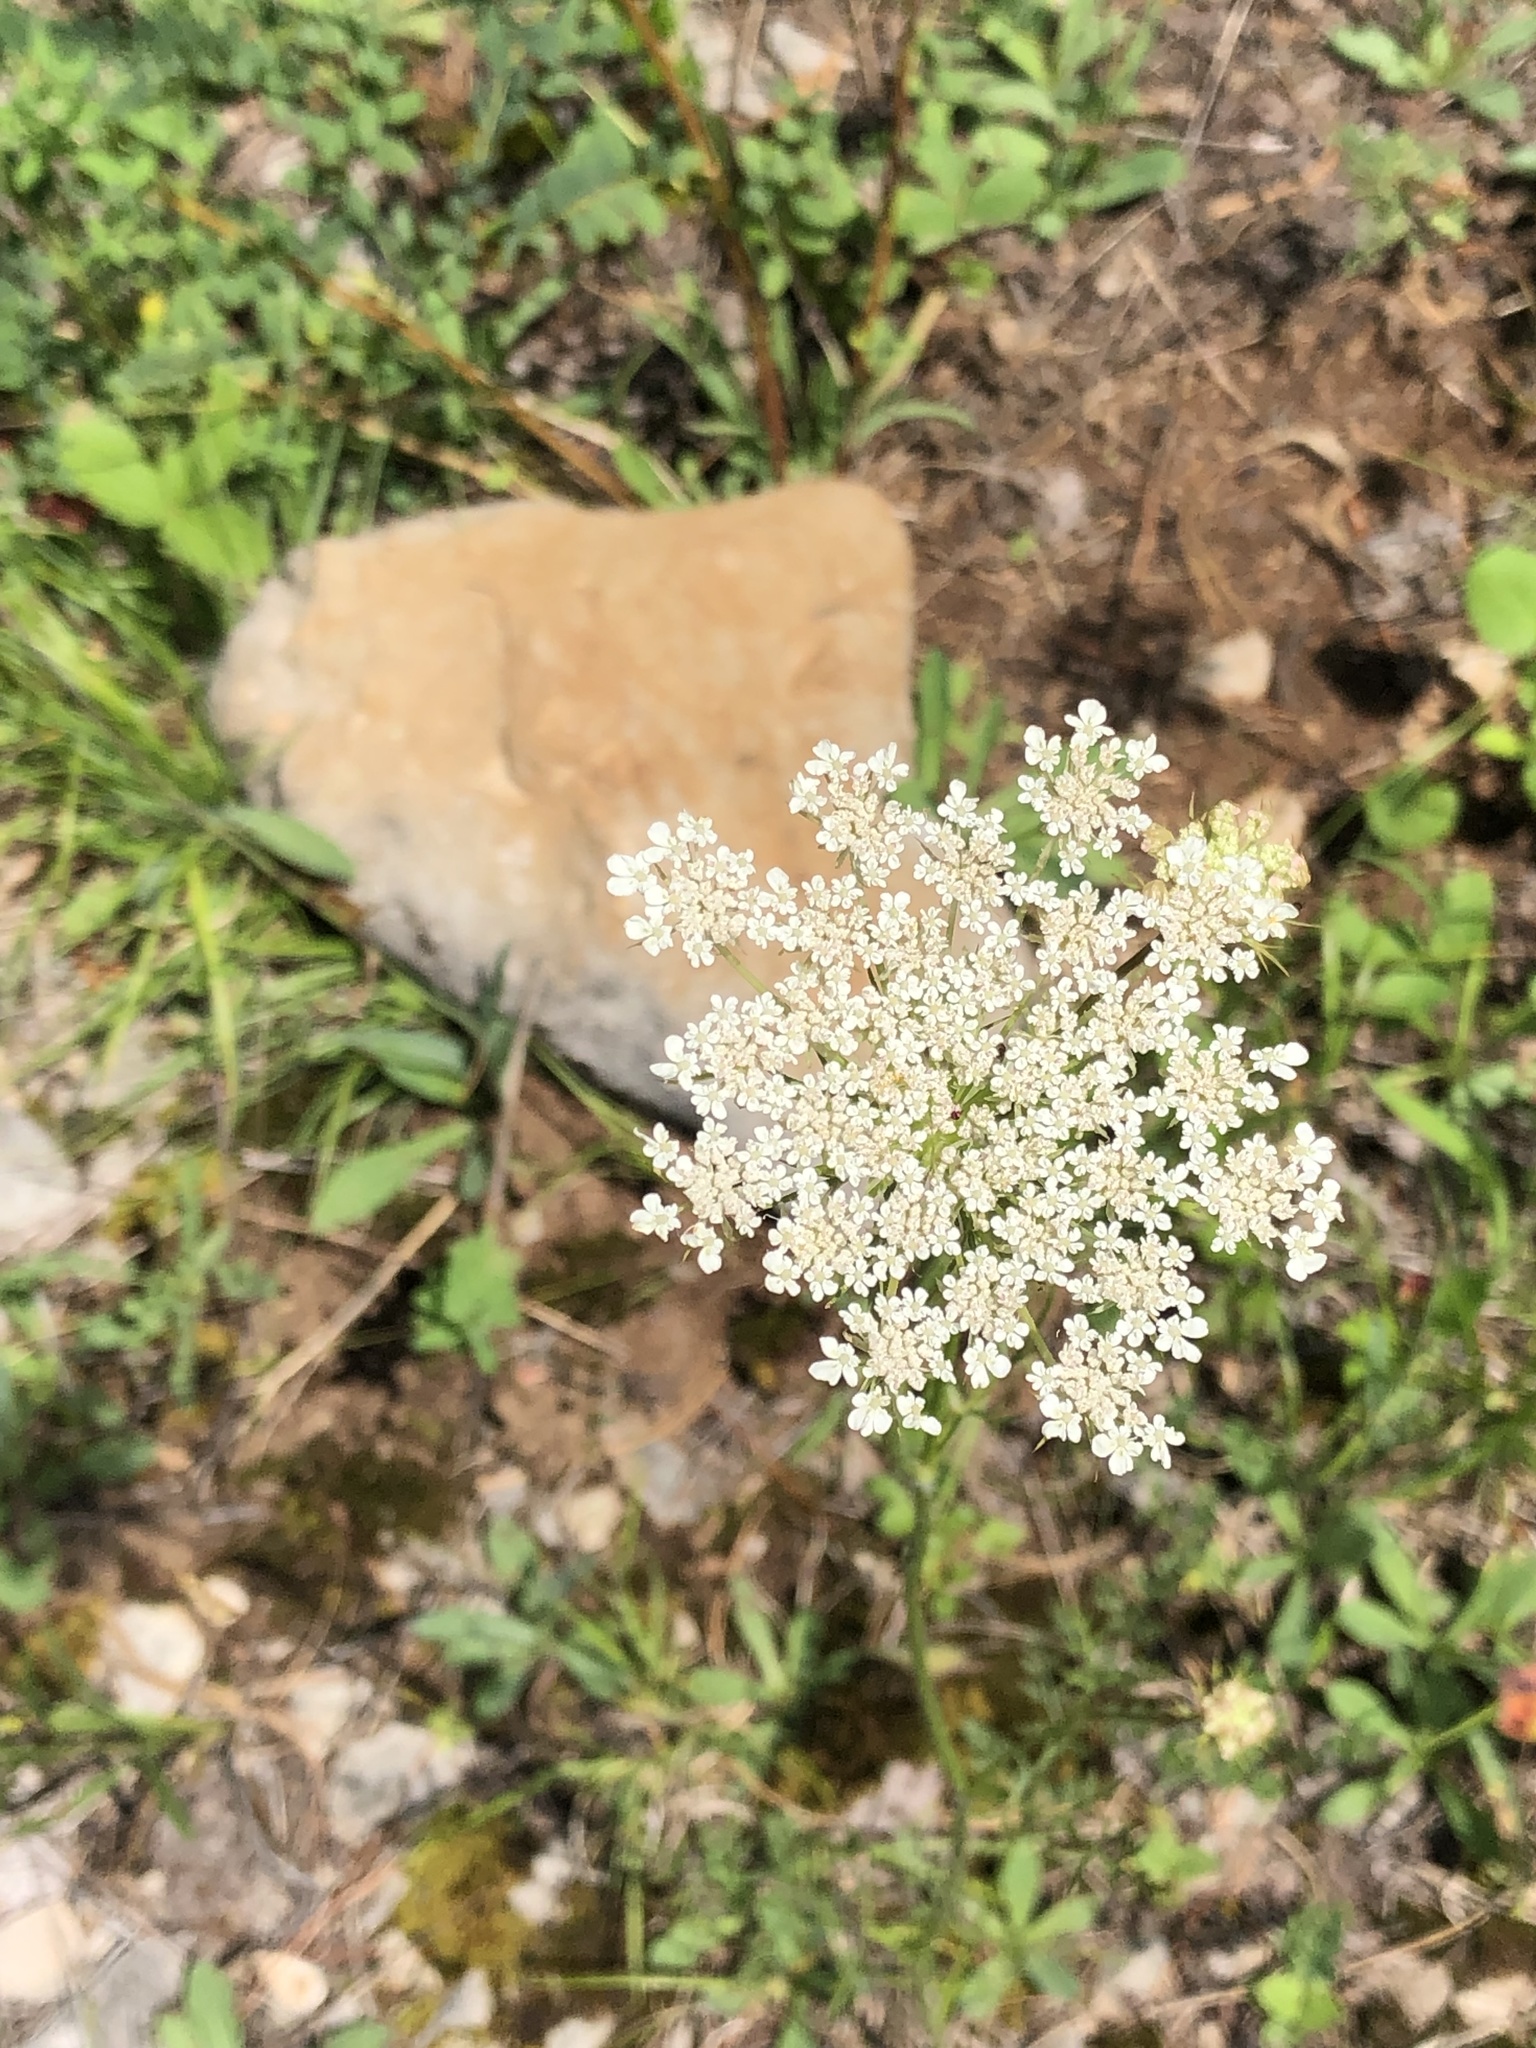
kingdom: Plantae
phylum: Tracheophyta
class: Magnoliopsida
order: Apiales
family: Apiaceae
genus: Daucus
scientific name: Daucus carota
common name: Wild carrot
